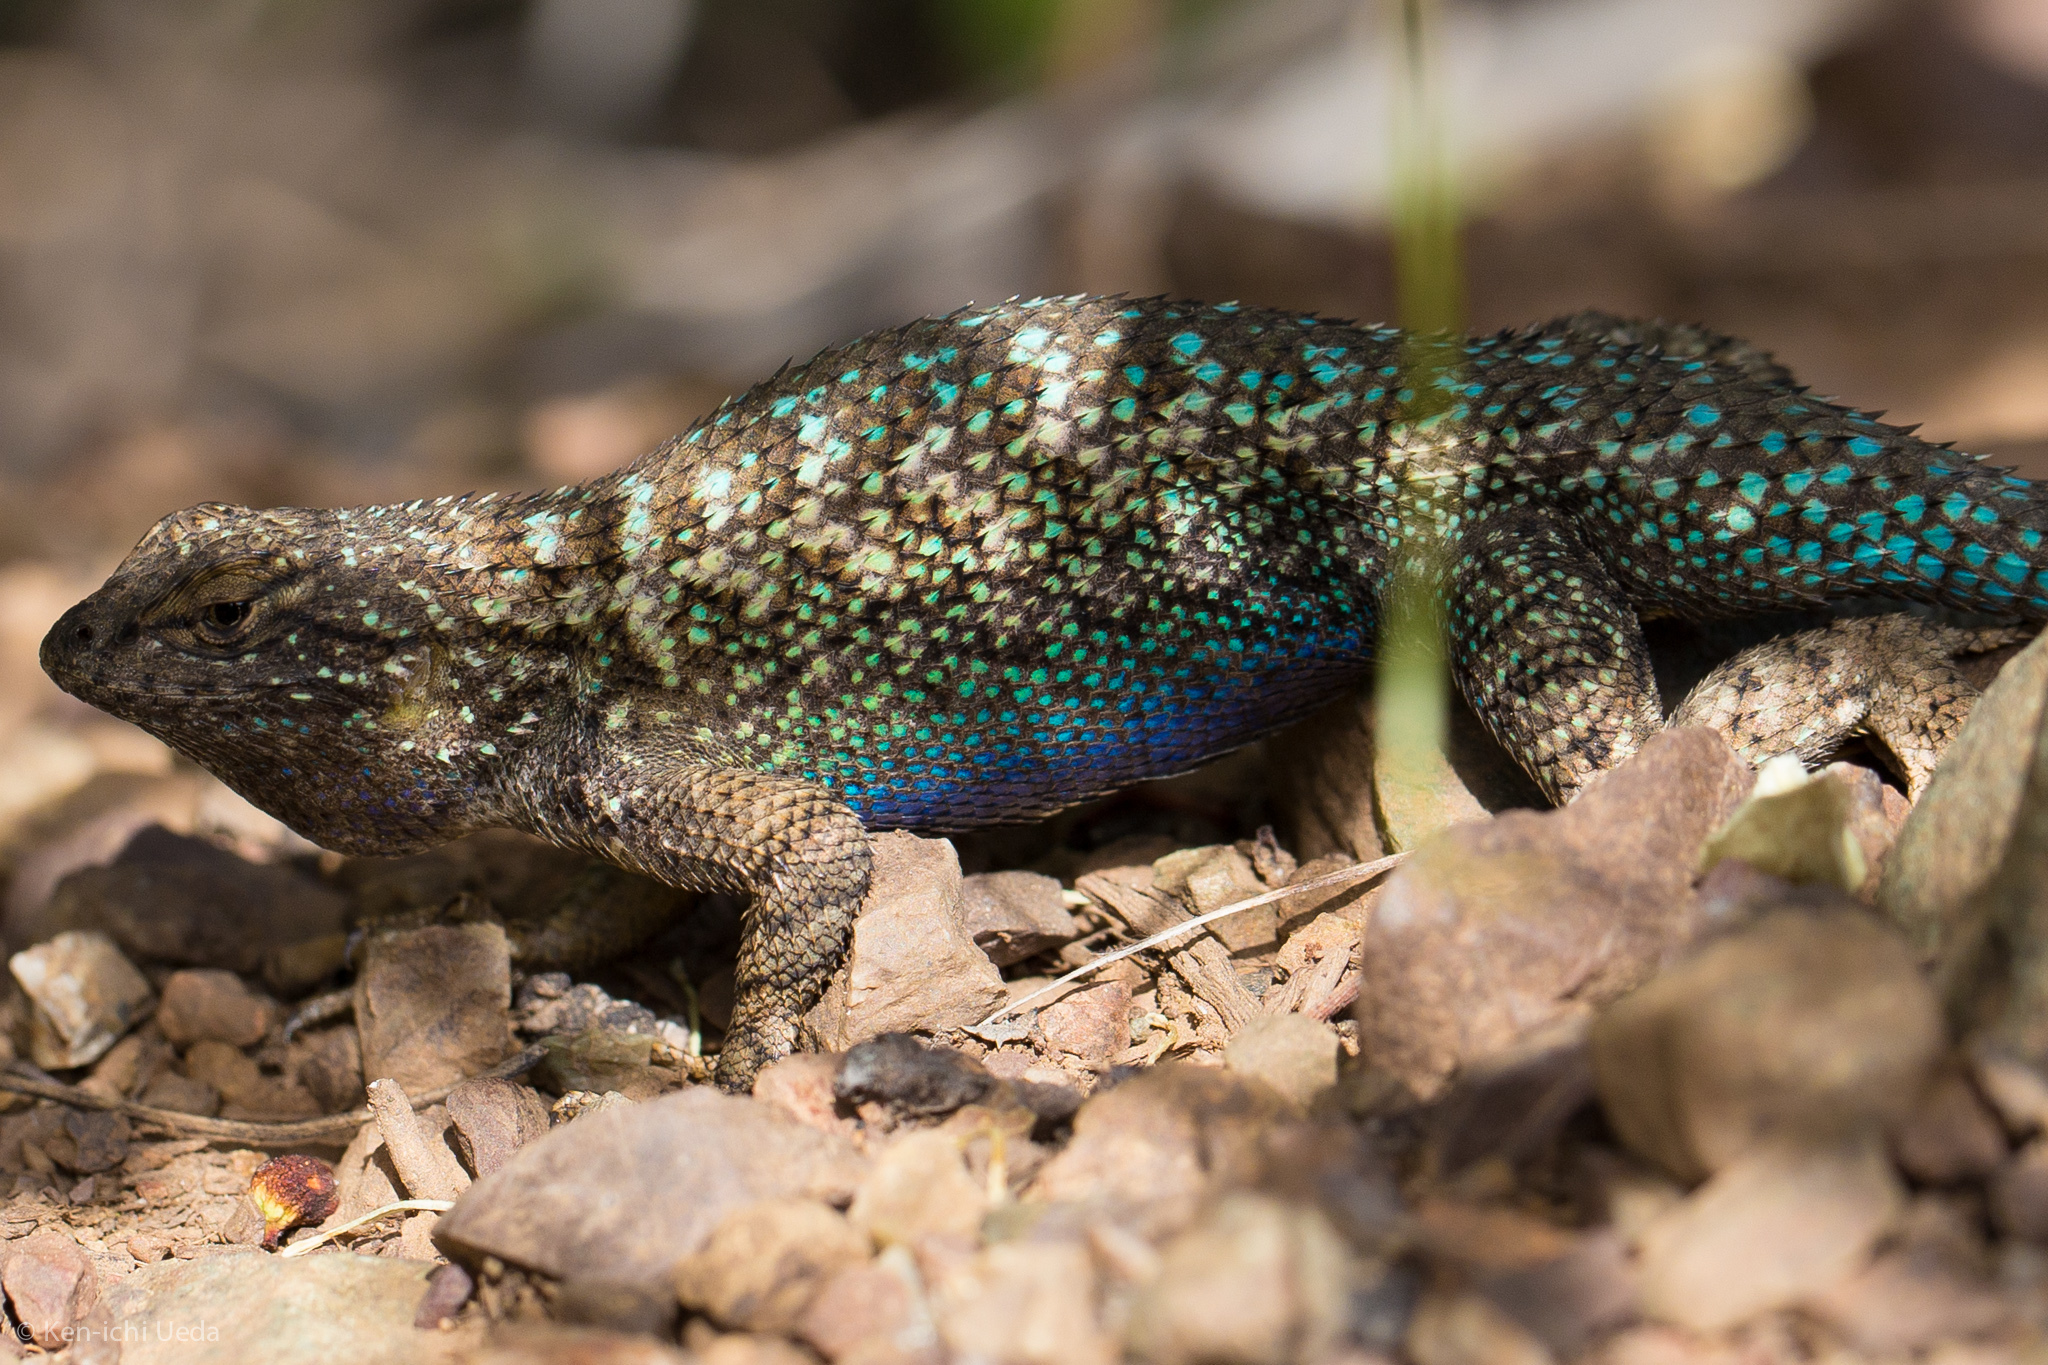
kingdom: Animalia
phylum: Chordata
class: Squamata
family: Phrynosomatidae
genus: Sceloporus
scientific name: Sceloporus occidentalis
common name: Western fence lizard
